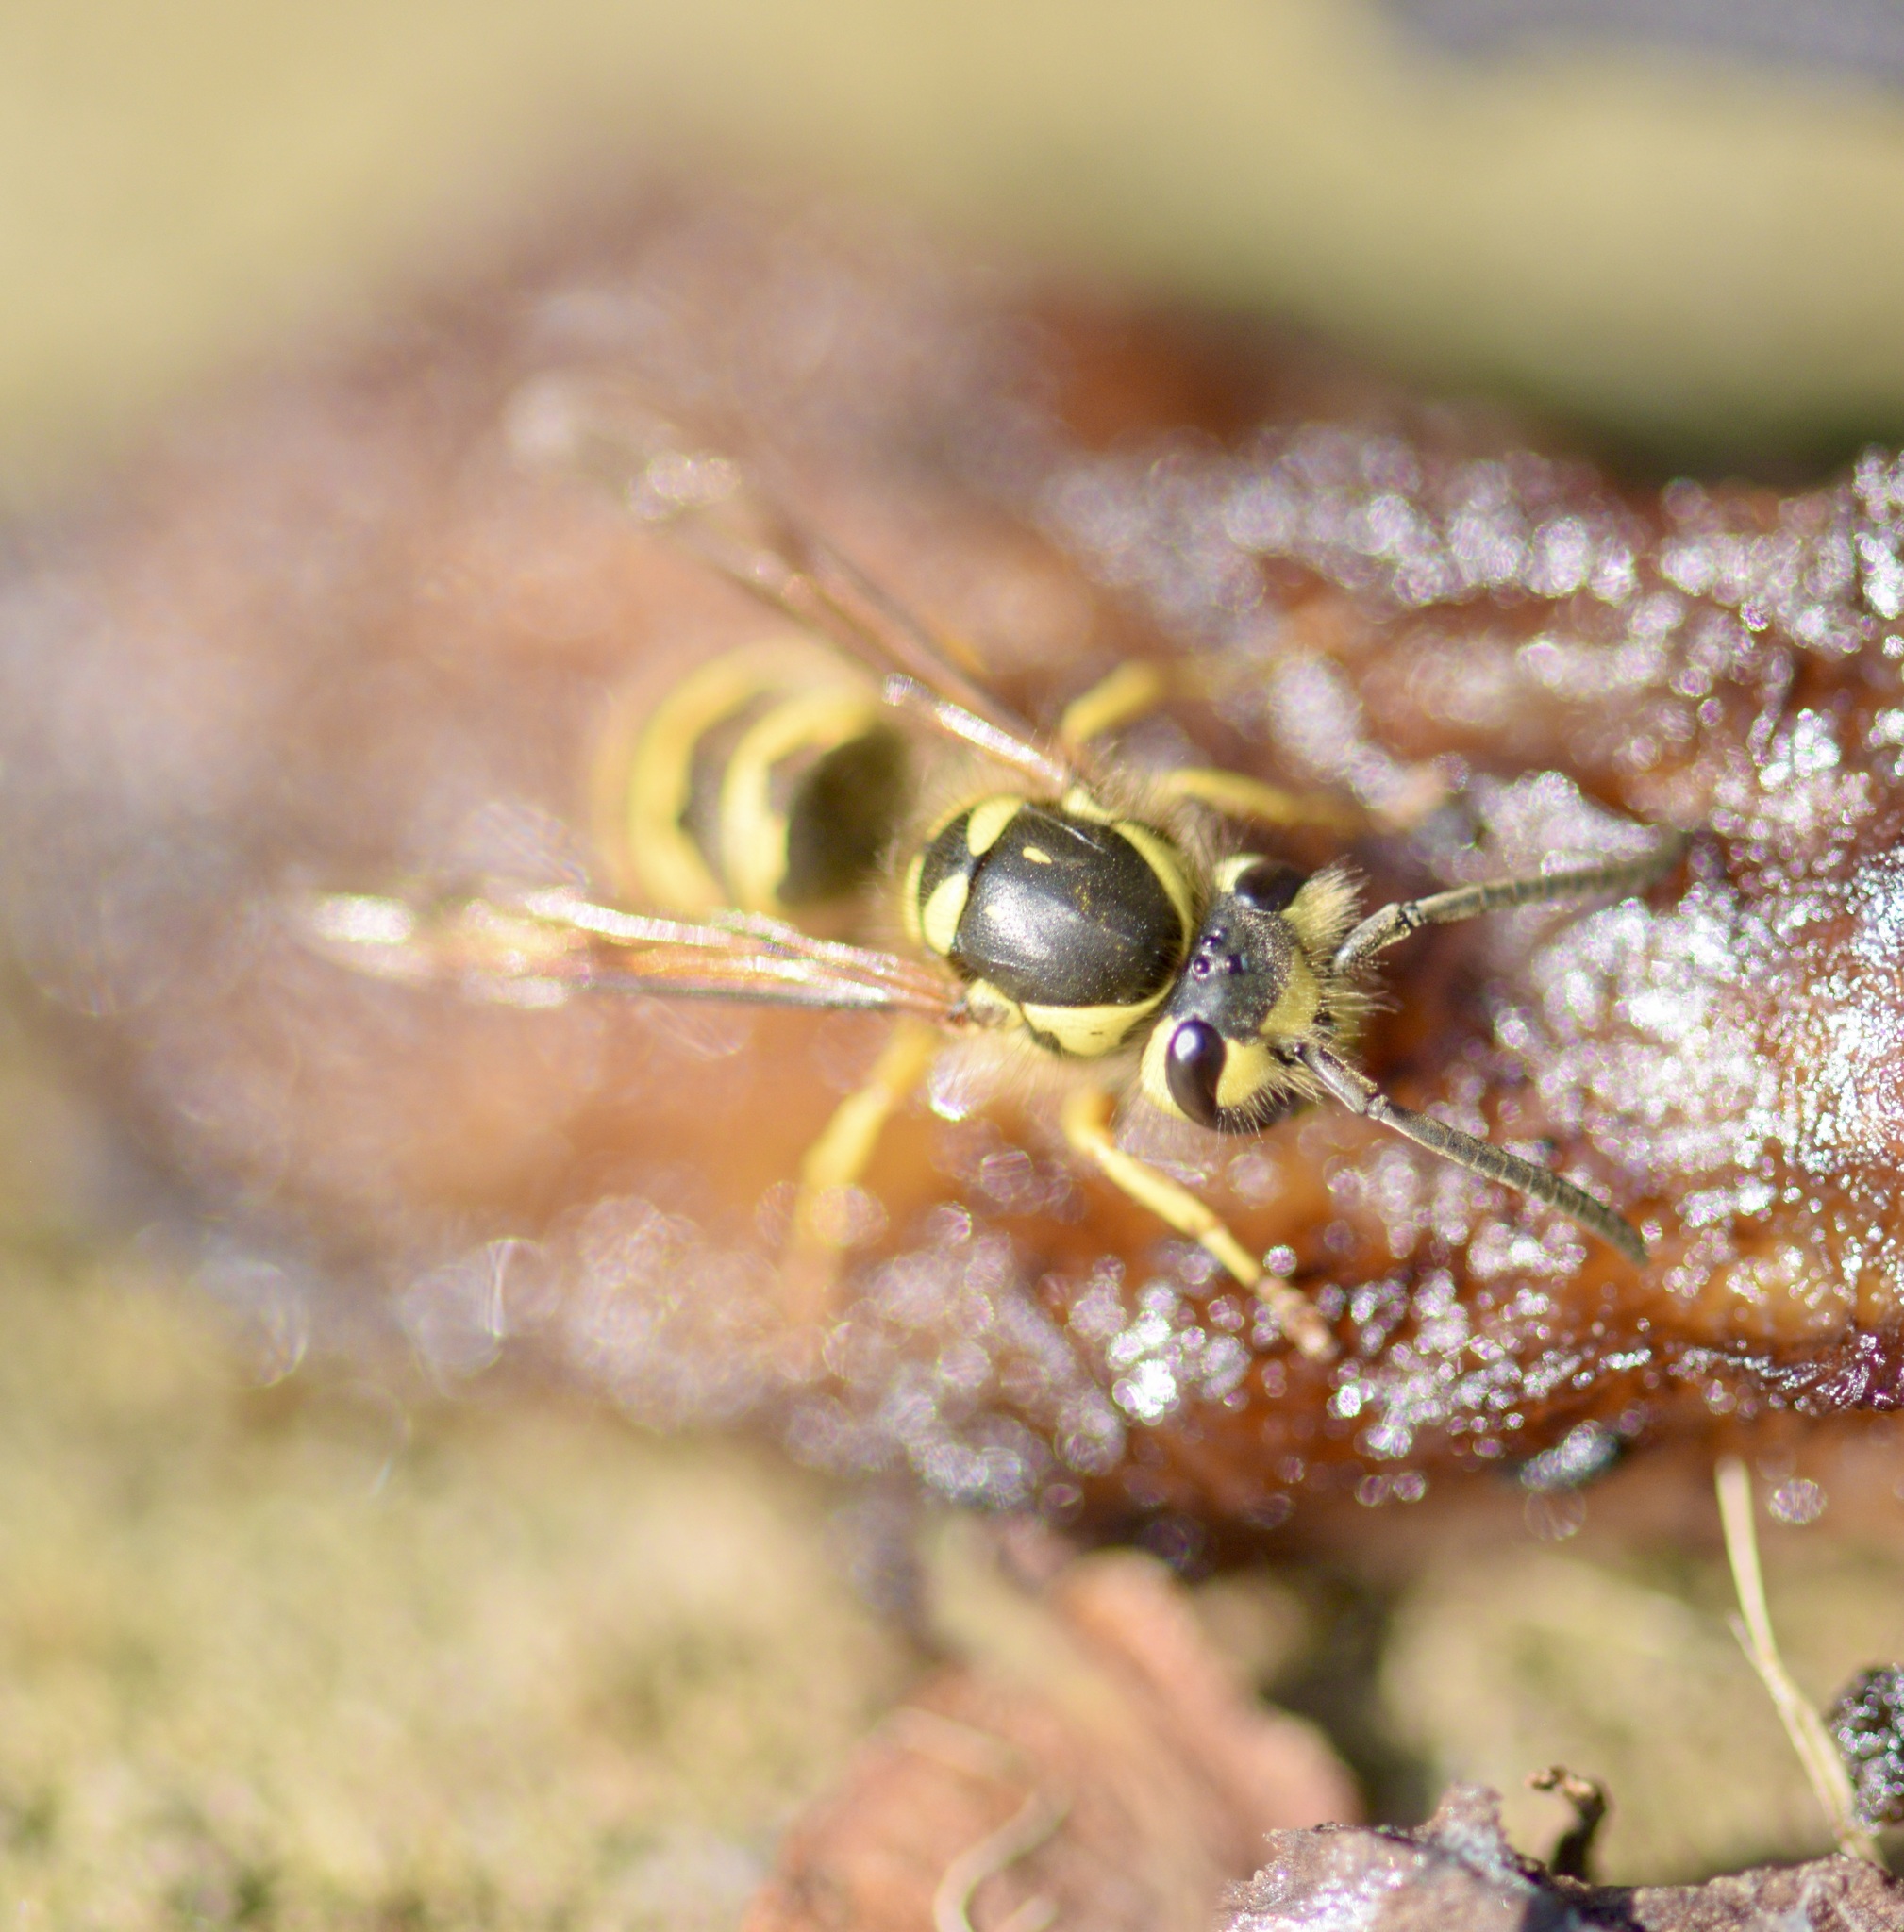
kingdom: Animalia
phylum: Arthropoda
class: Insecta
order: Hymenoptera
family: Vespidae
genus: Vespula
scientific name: Vespula flavopilosa
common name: Downy yellowjacket
